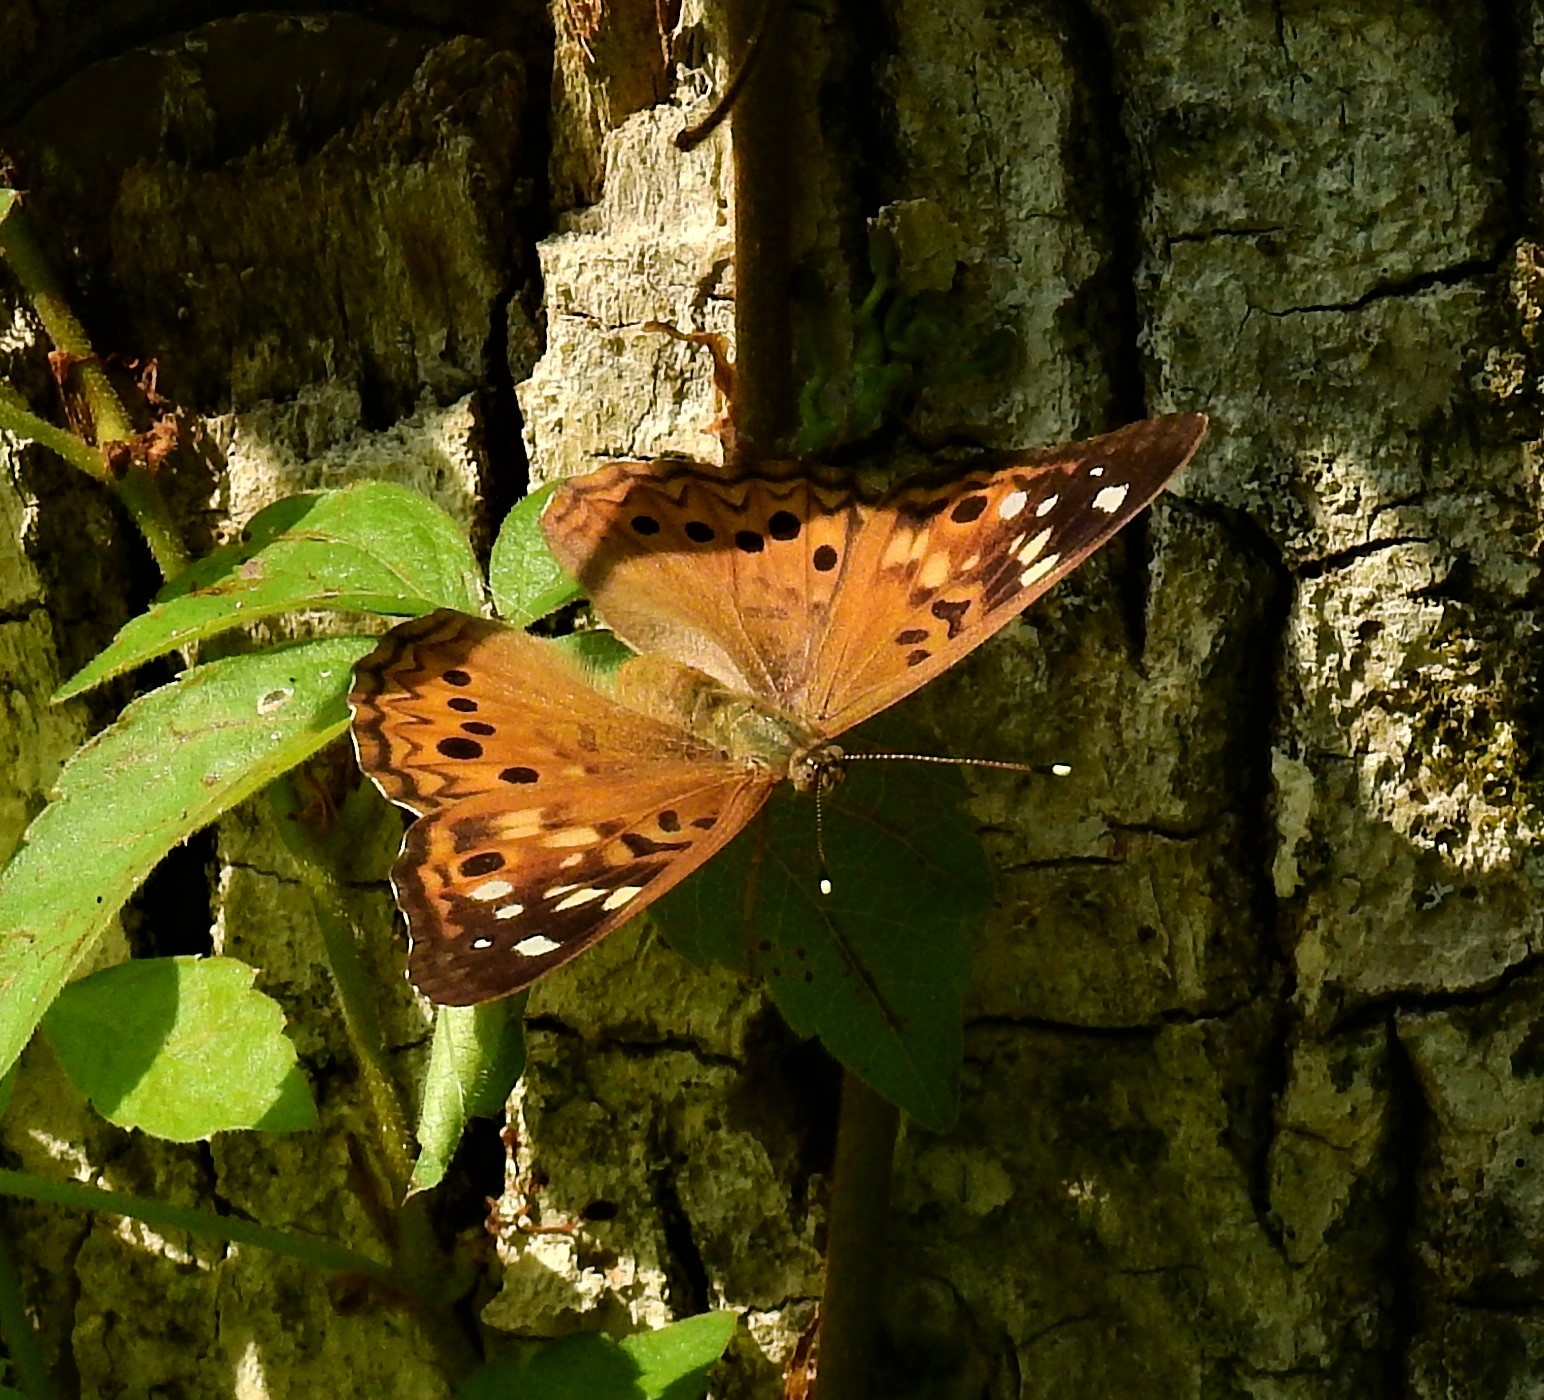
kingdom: Animalia
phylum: Arthropoda
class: Insecta
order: Lepidoptera
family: Nymphalidae
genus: Asterocampa
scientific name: Asterocampa celtis
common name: Hackberry emperor
